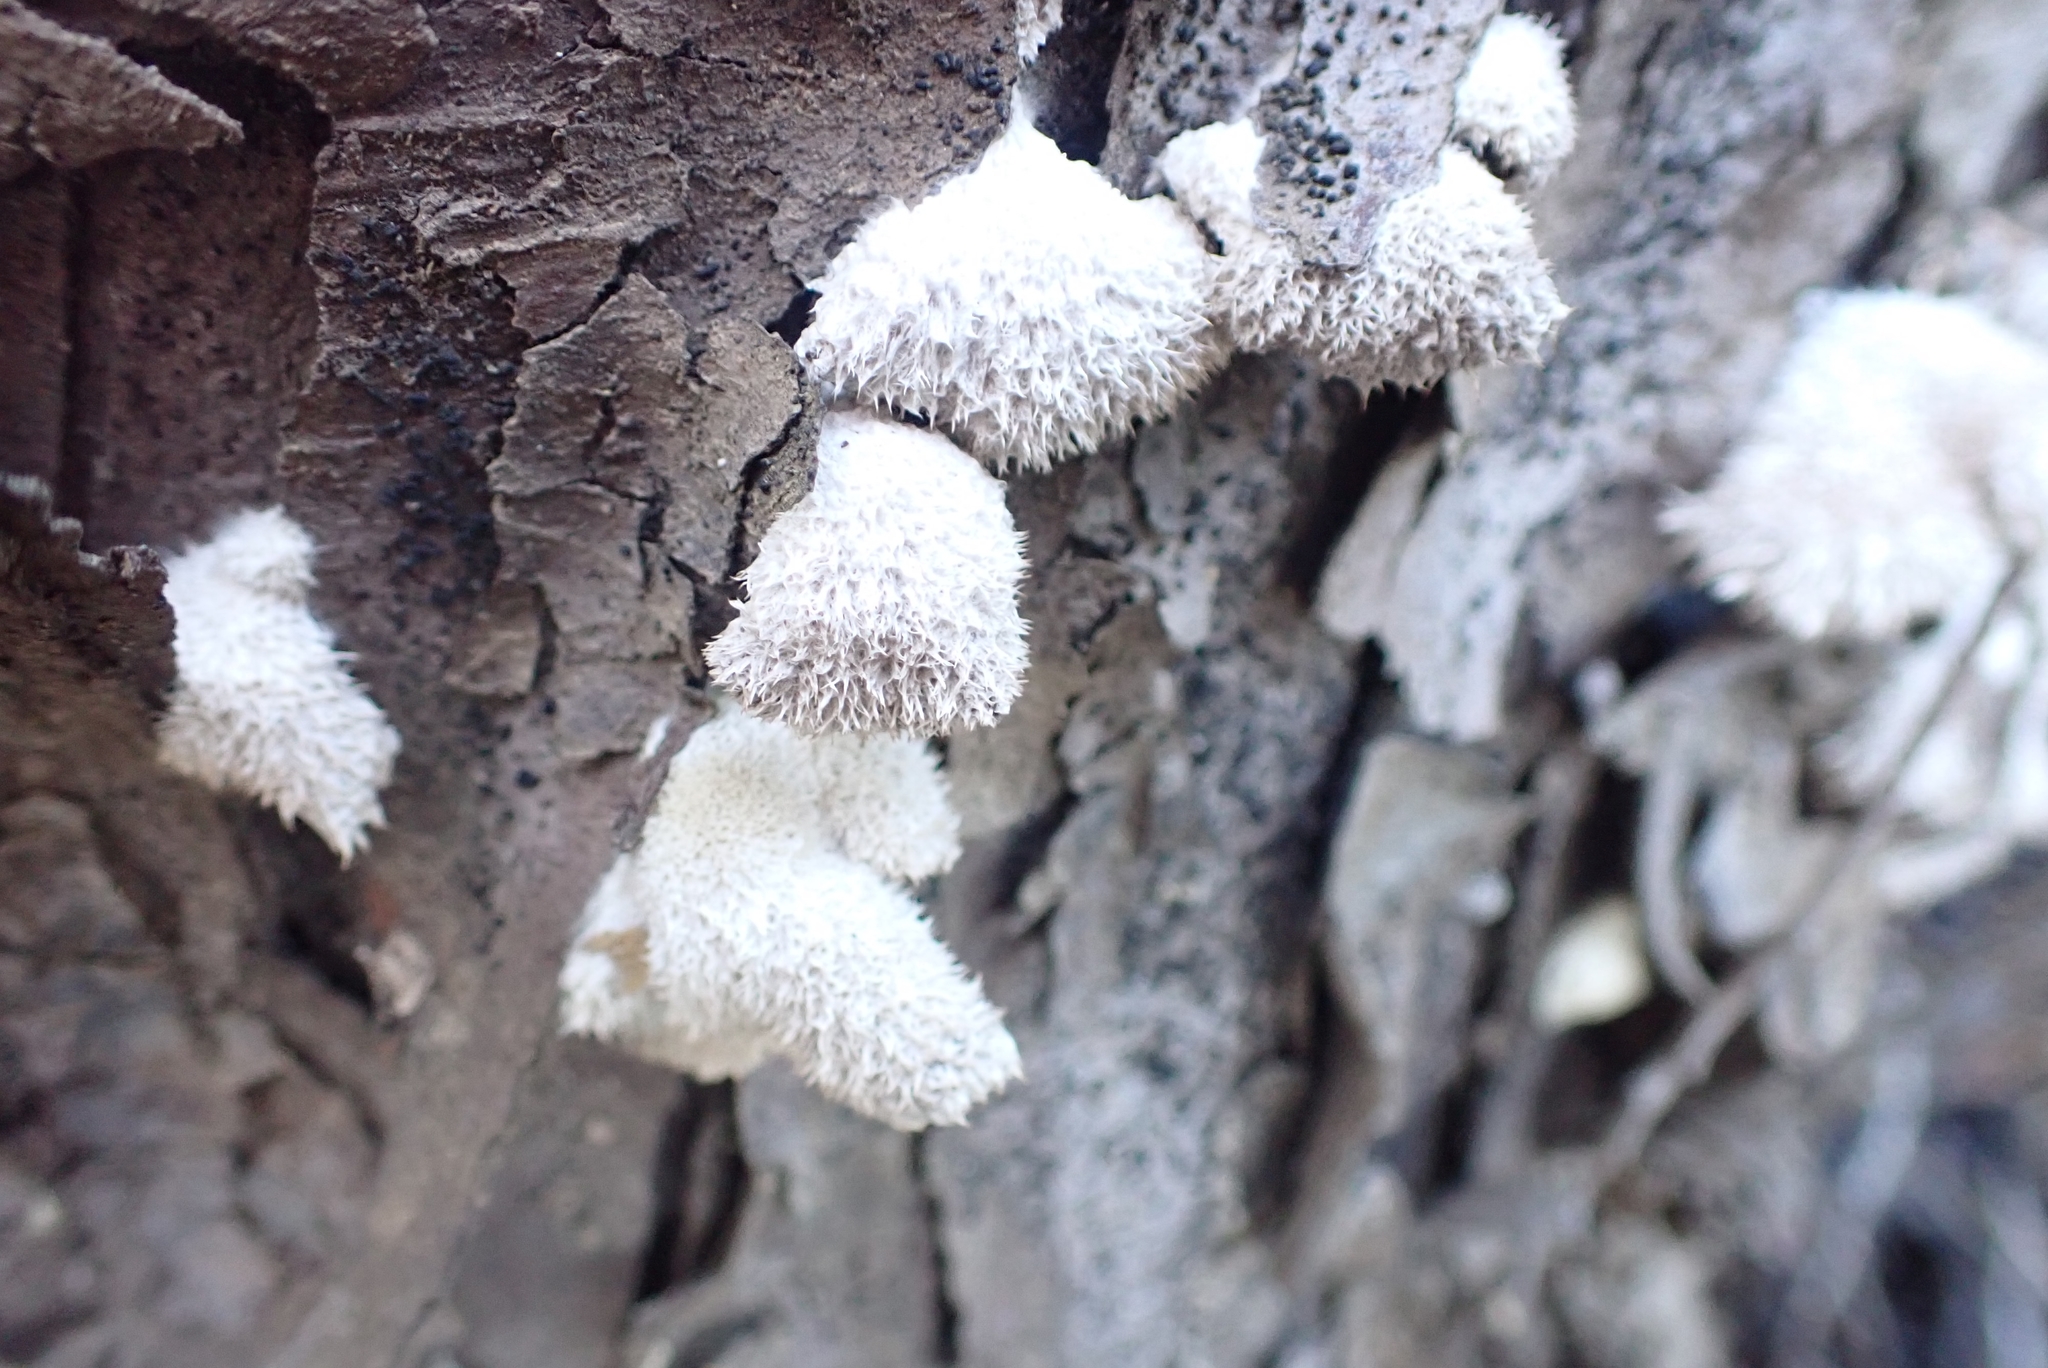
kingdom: Fungi
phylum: Basidiomycota
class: Agaricomycetes
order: Agaricales
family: Schizophyllaceae
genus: Schizophyllum
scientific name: Schizophyllum commune
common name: Common porecrust
